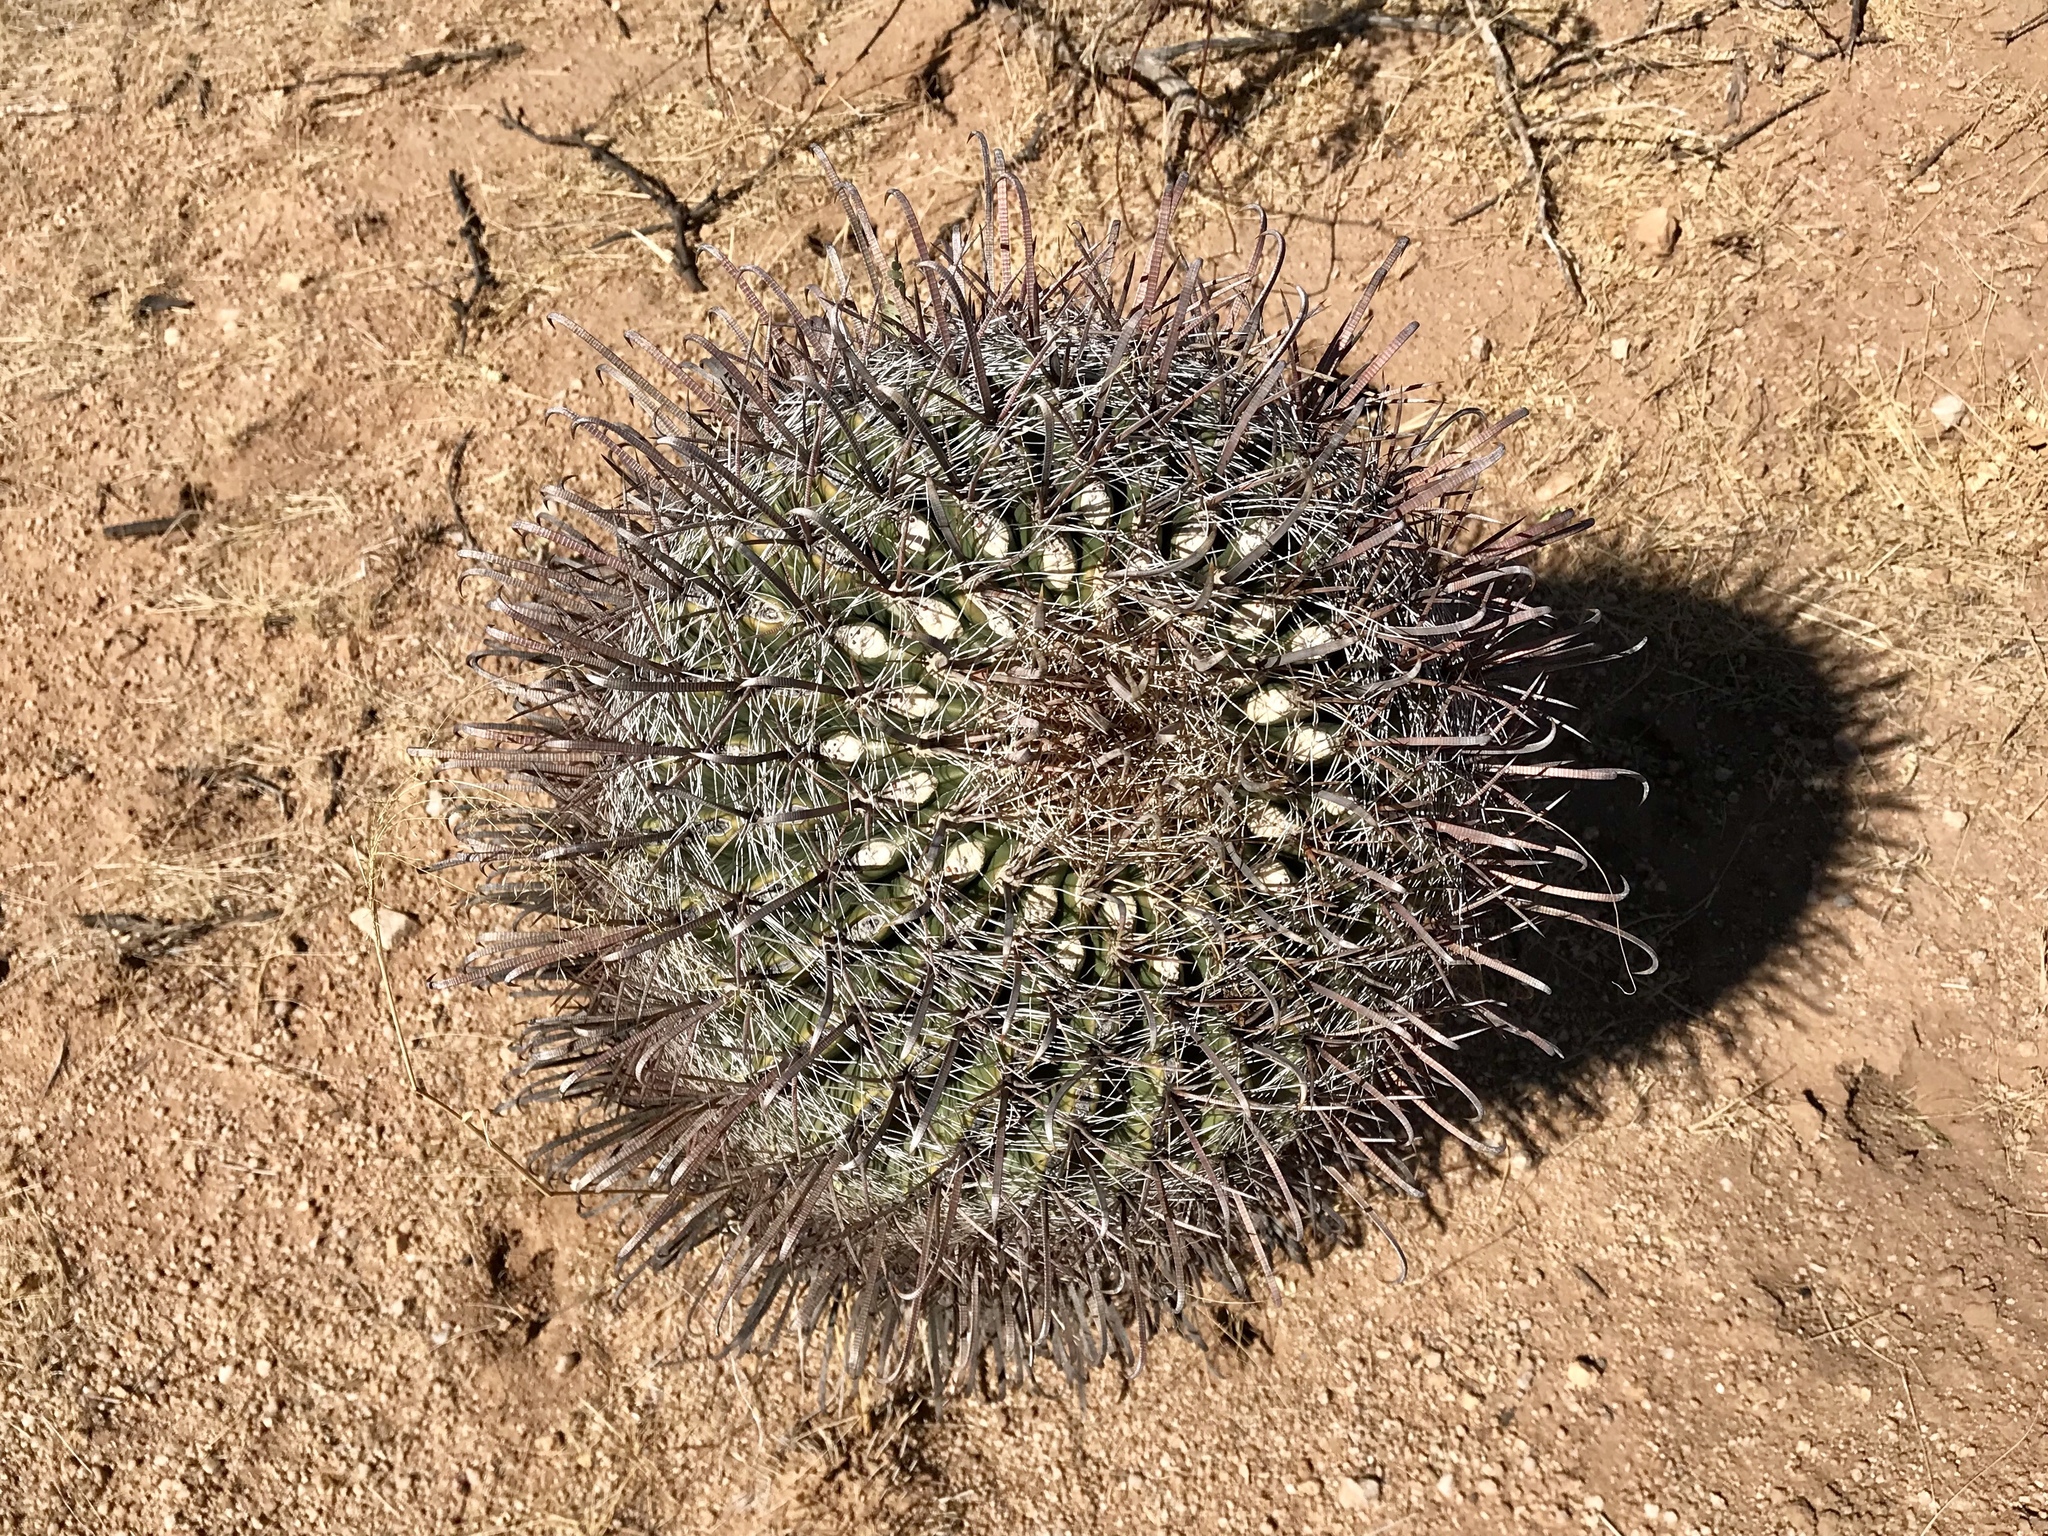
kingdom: Plantae
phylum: Tracheophyta
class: Magnoliopsida
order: Caryophyllales
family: Cactaceae
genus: Ferocactus
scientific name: Ferocactus wislizeni
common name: Candy barrel cactus
